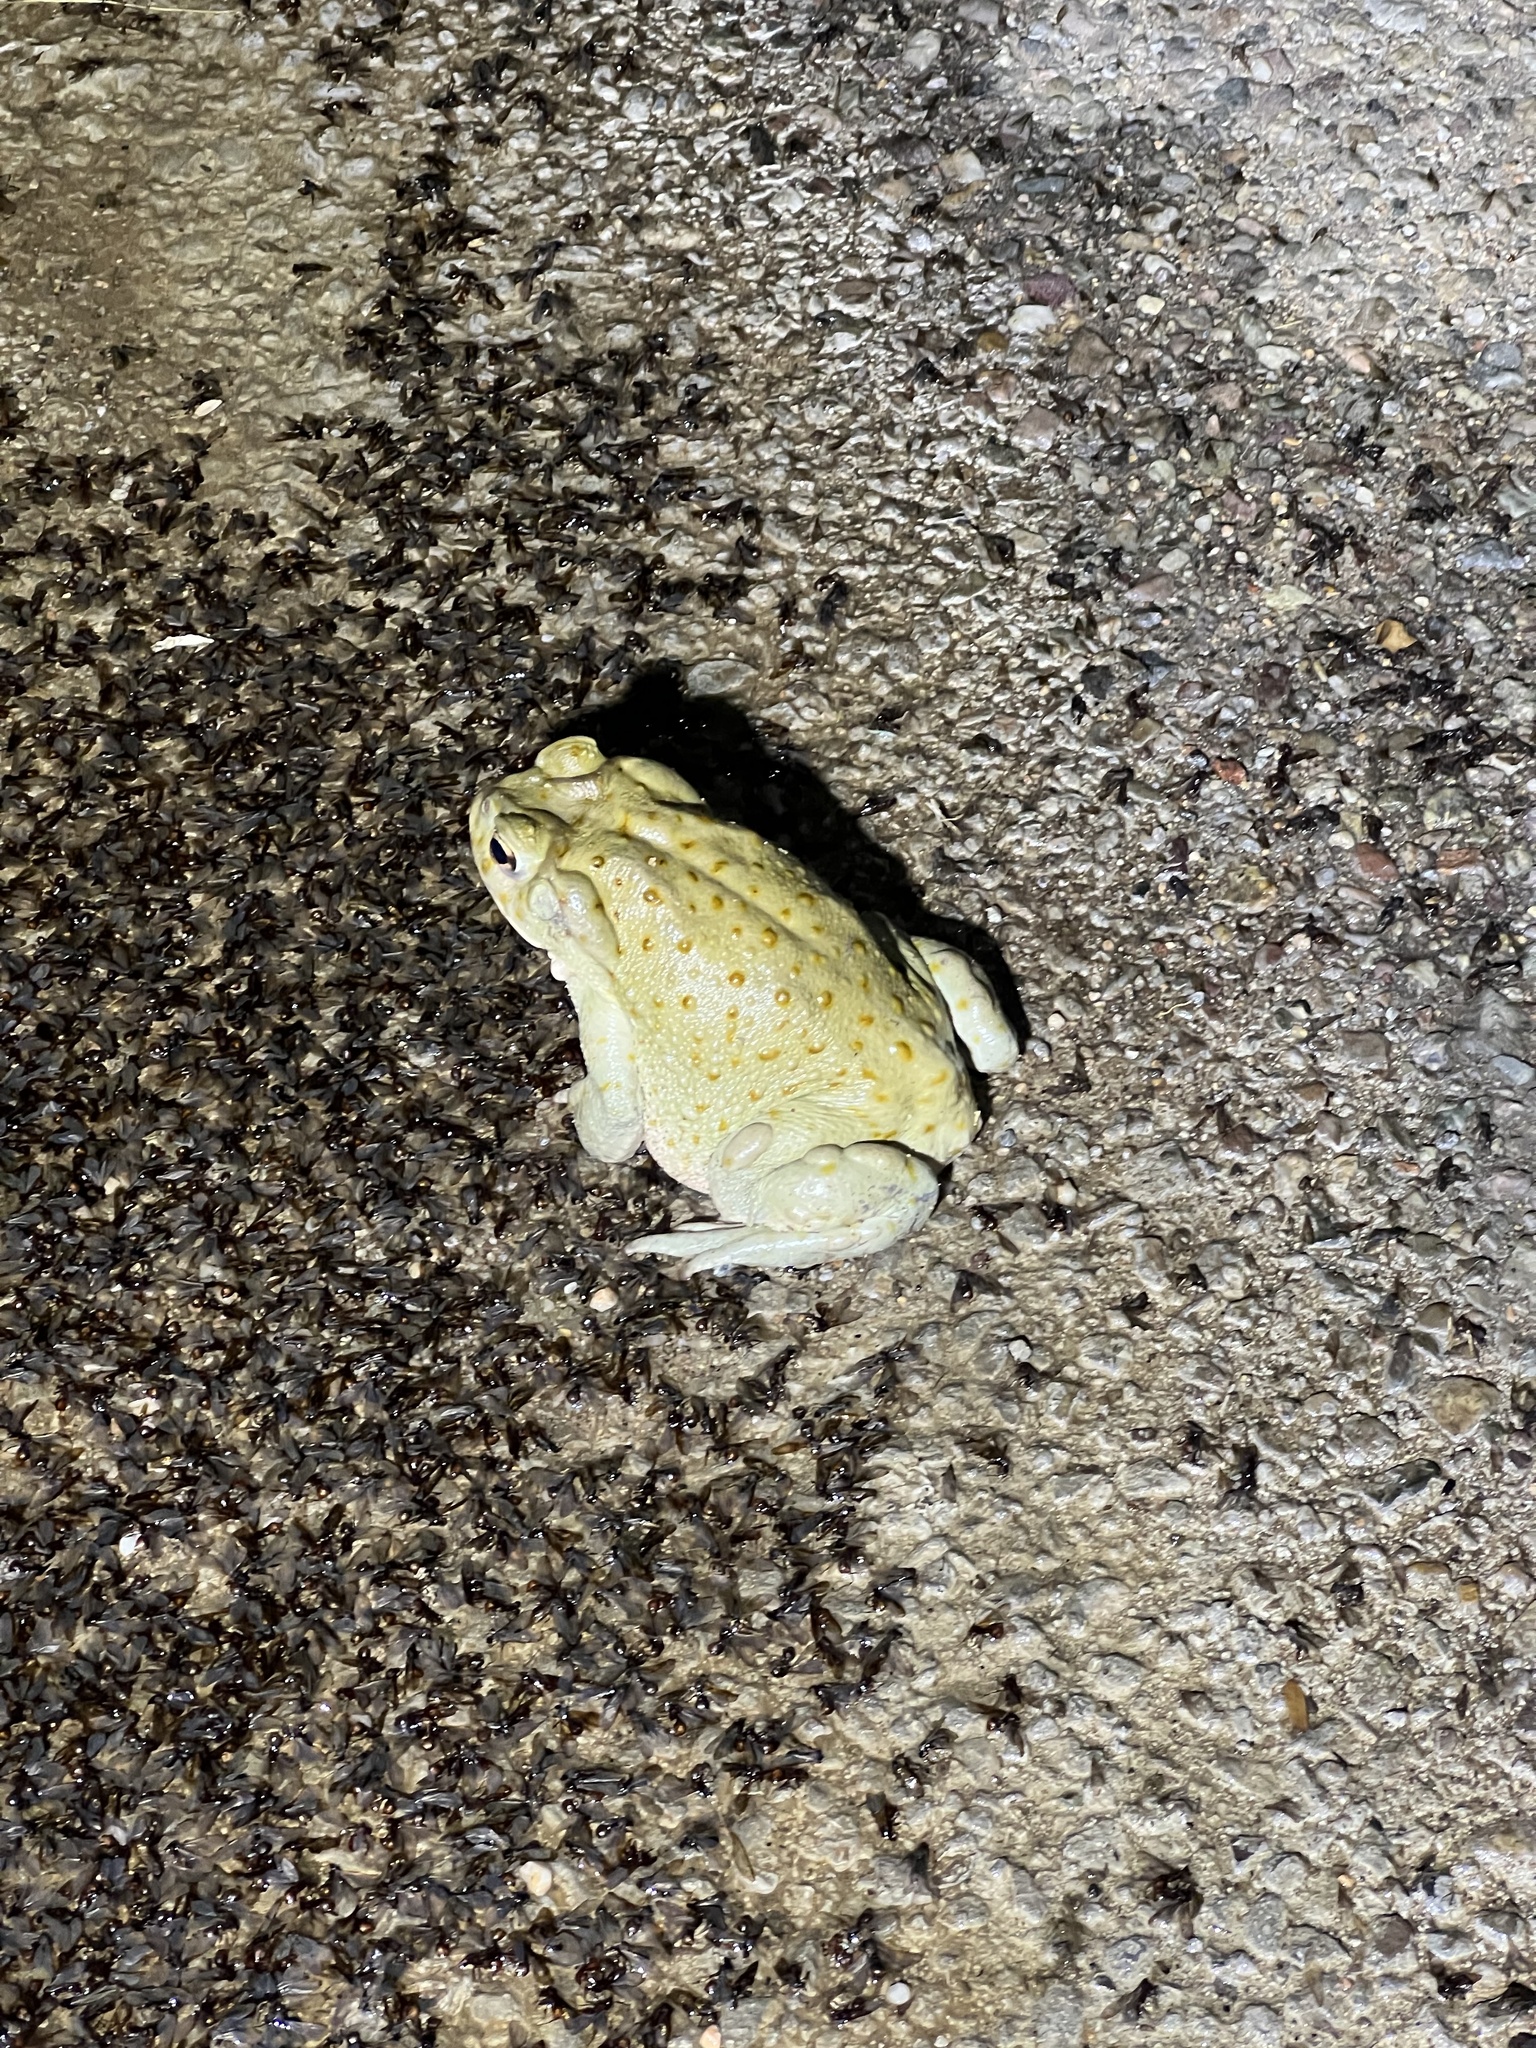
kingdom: Animalia
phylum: Chordata
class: Amphibia
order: Anura
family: Bufonidae
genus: Incilius
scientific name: Incilius alvarius
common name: Sonoran desert toad
